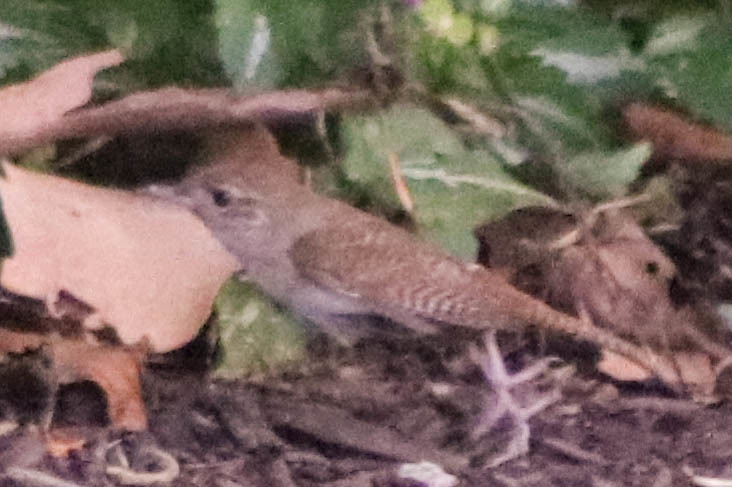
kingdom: Animalia
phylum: Chordata
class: Aves
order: Passeriformes
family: Troglodytidae
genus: Troglodytes
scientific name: Troglodytes aedon
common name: House wren
